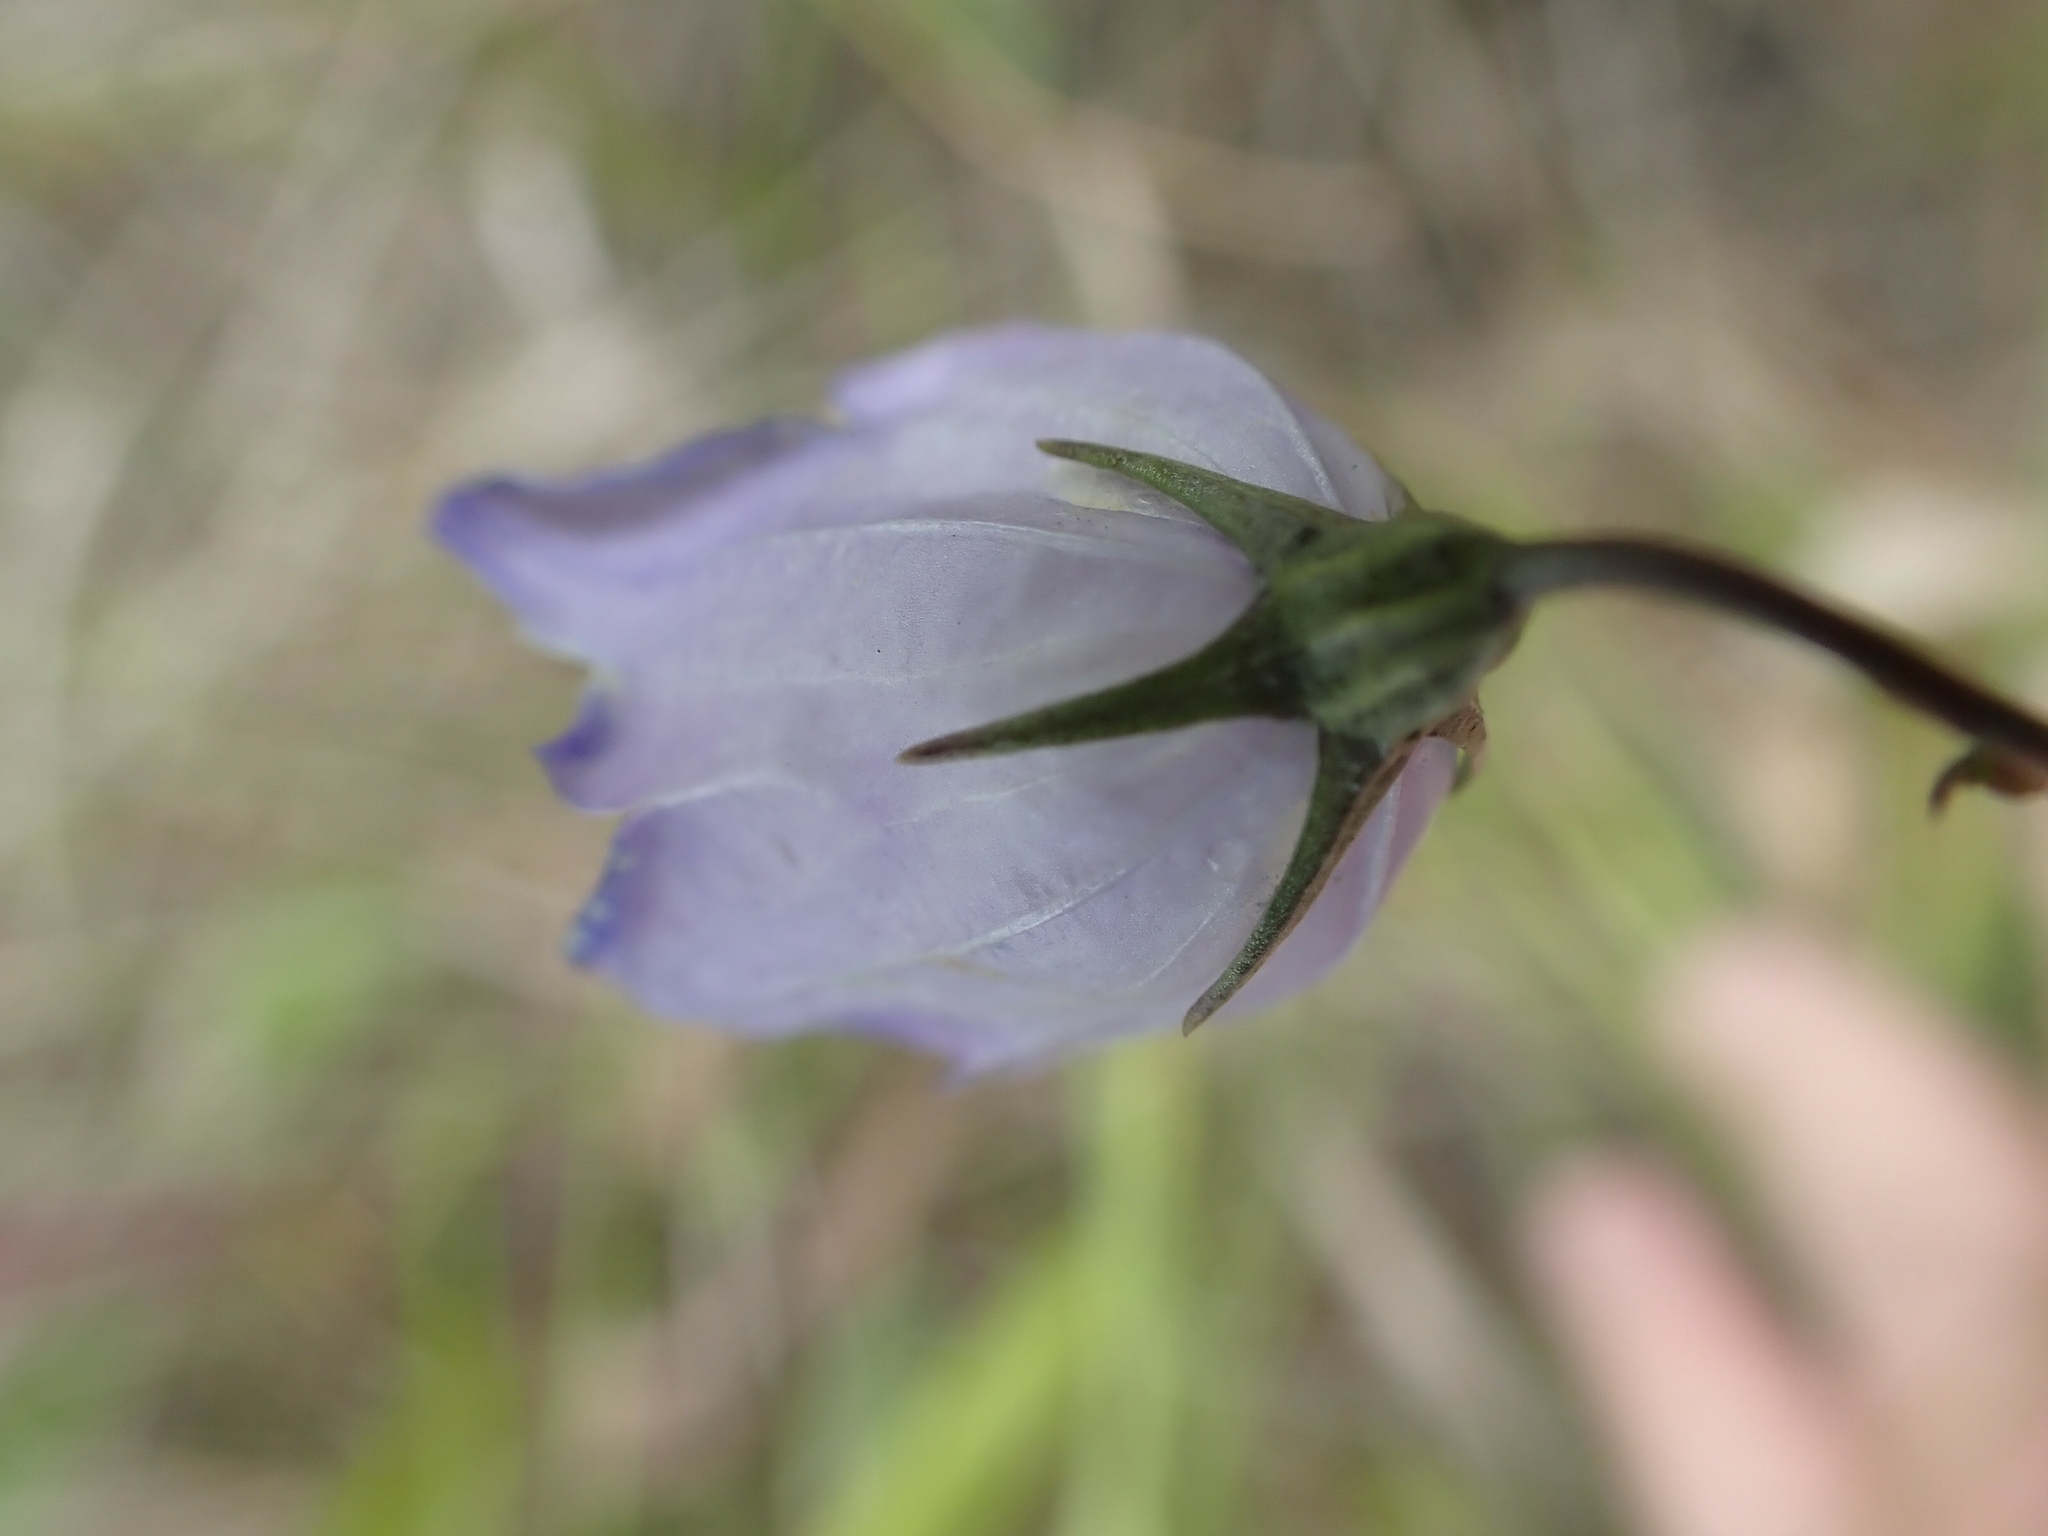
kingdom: Plantae
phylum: Tracheophyta
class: Magnoliopsida
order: Asterales
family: Campanulaceae
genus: Campanula
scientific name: Campanula petiolata
